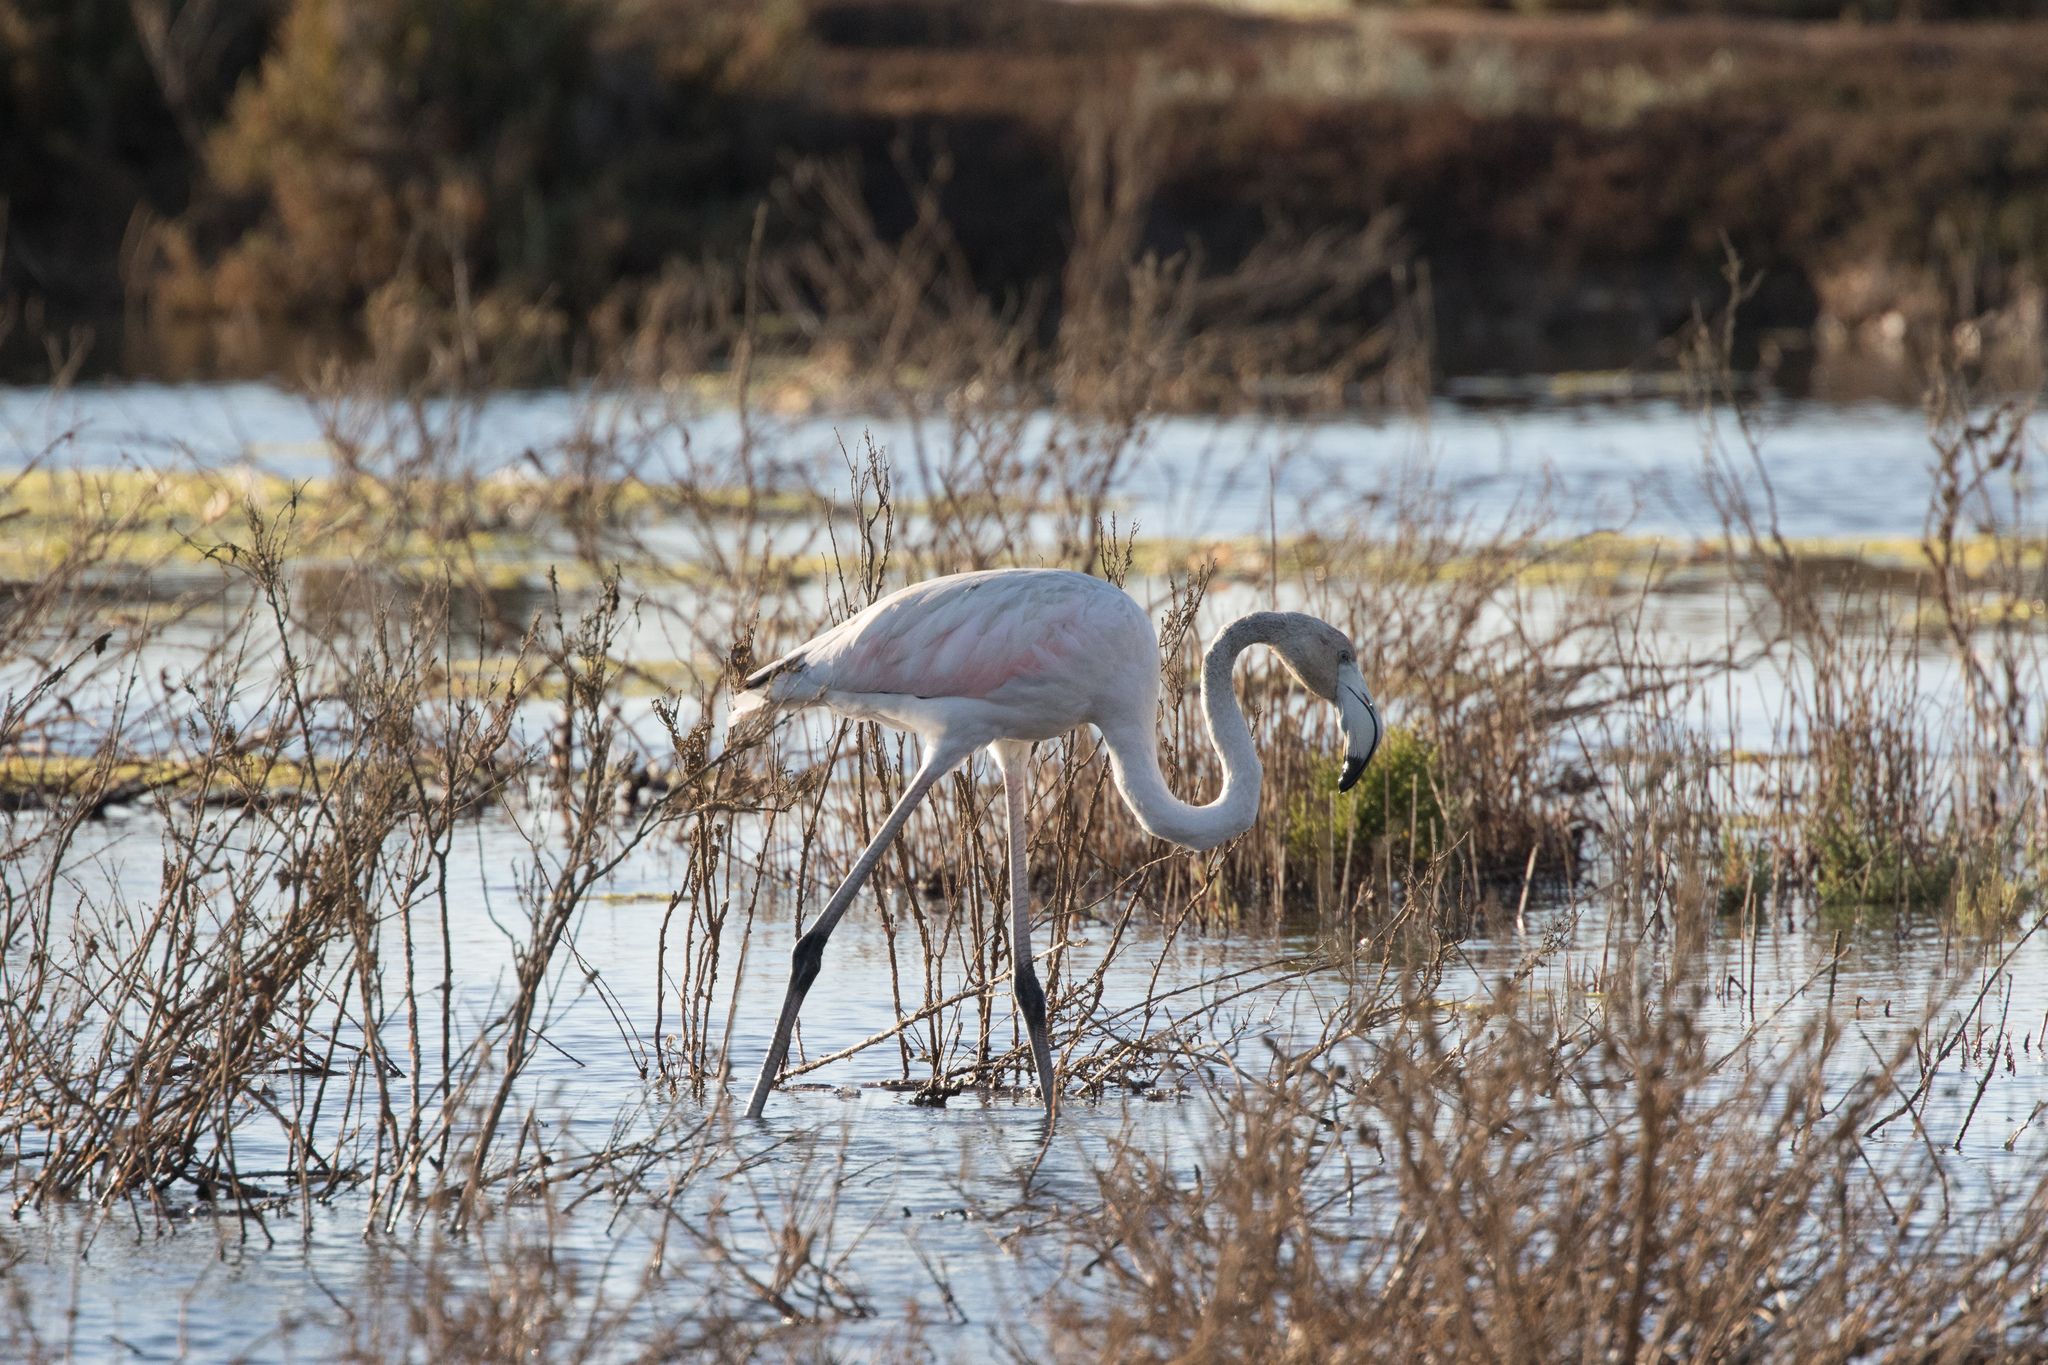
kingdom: Animalia
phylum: Chordata
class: Aves
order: Phoenicopteriformes
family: Phoenicopteridae
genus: Phoenicopterus
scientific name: Phoenicopterus roseus
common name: Greater flamingo
